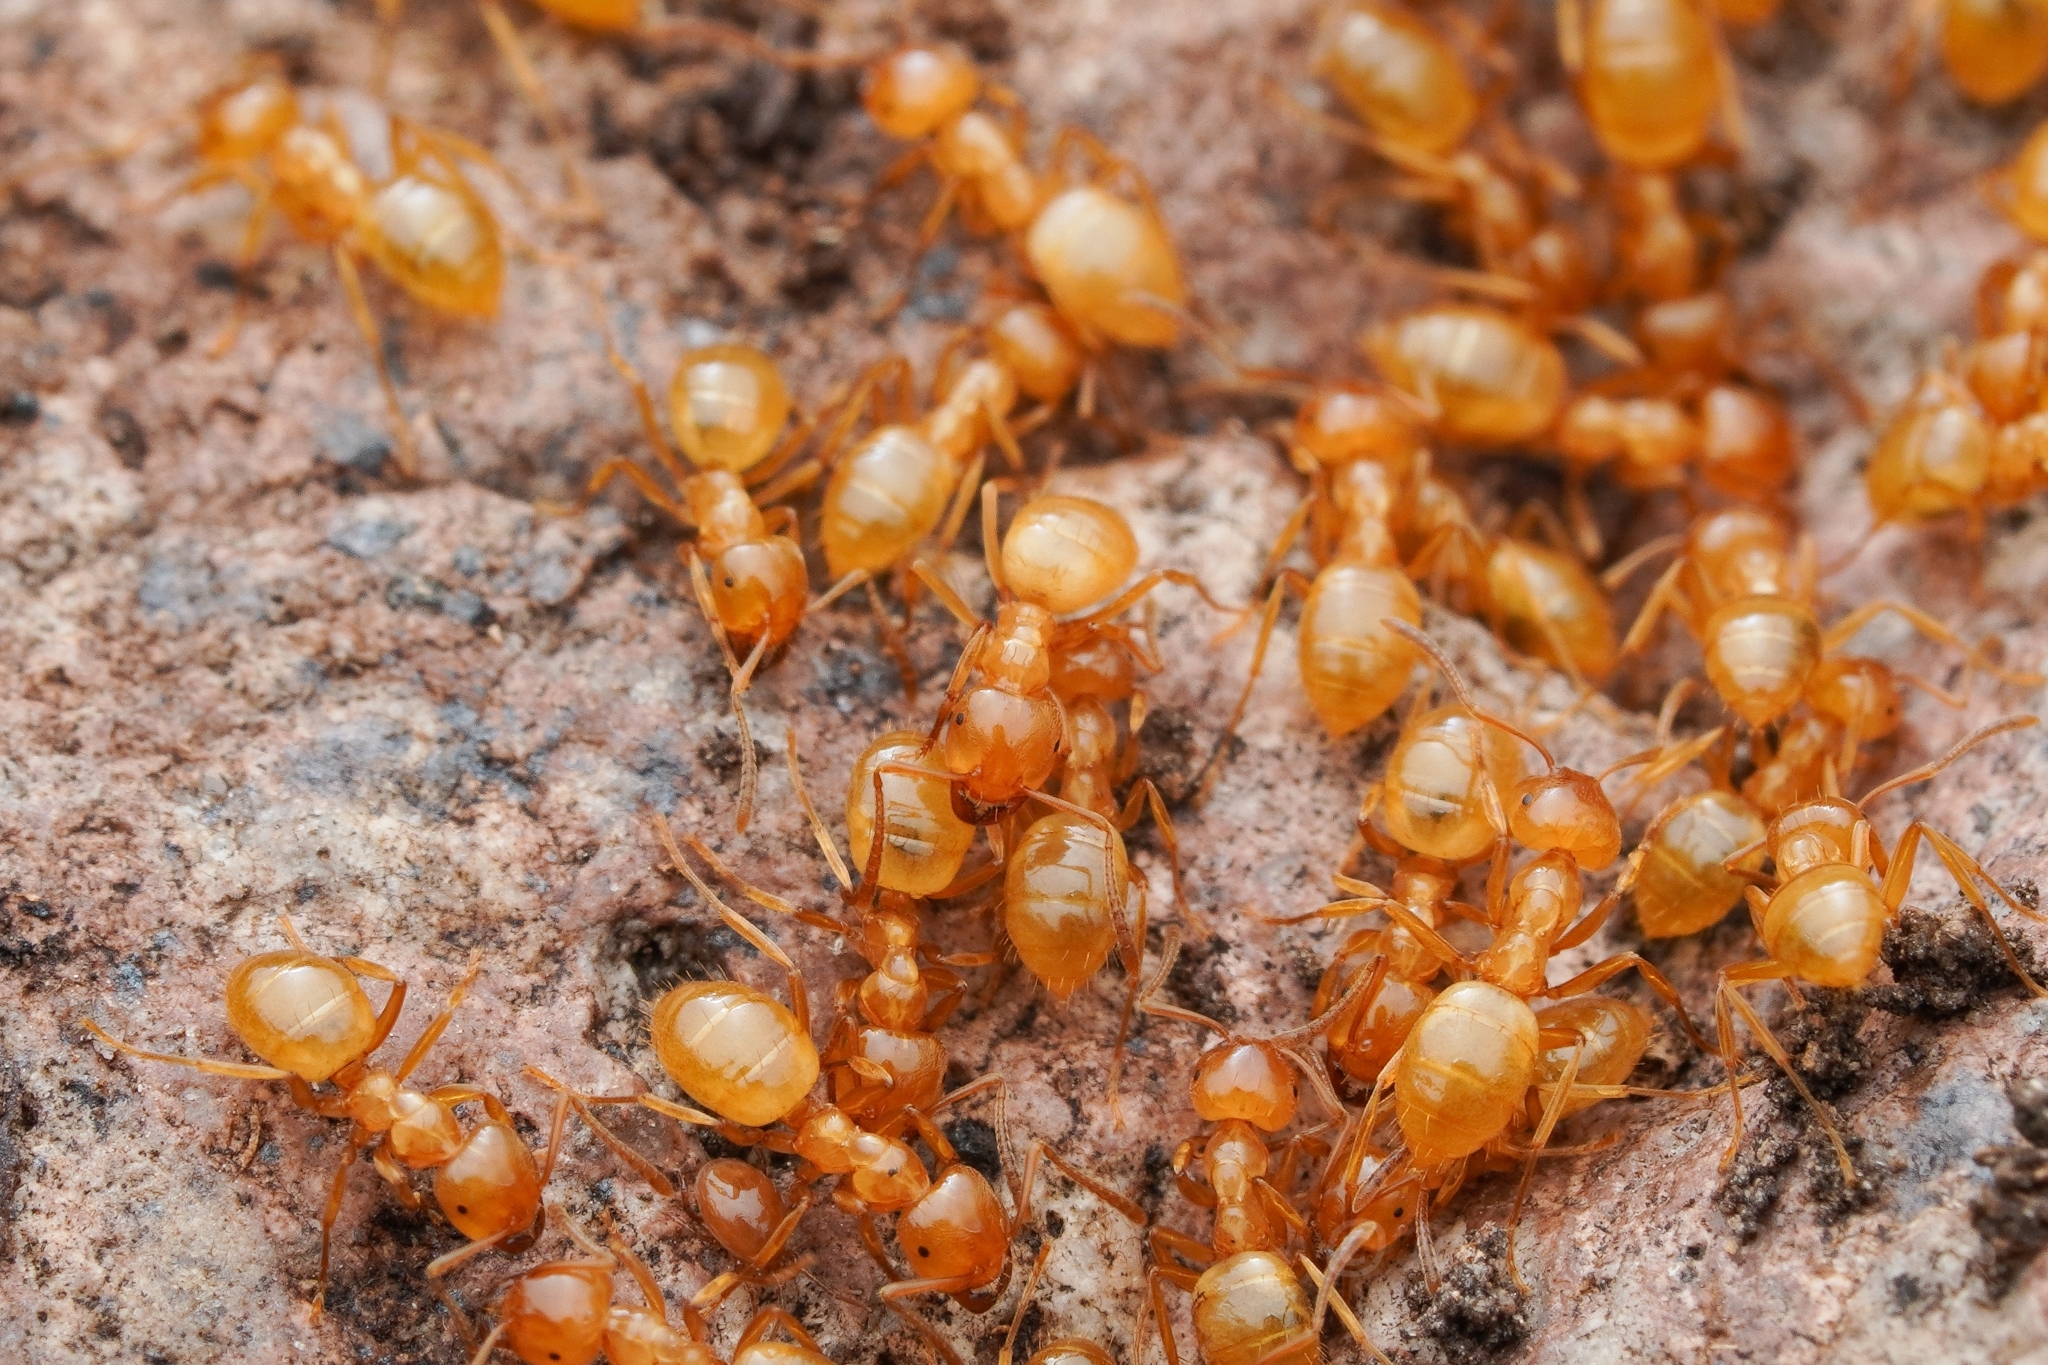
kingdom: Animalia
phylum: Arthropoda
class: Insecta
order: Hymenoptera
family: Formicidae
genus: Lasius
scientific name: Lasius arizonicus
